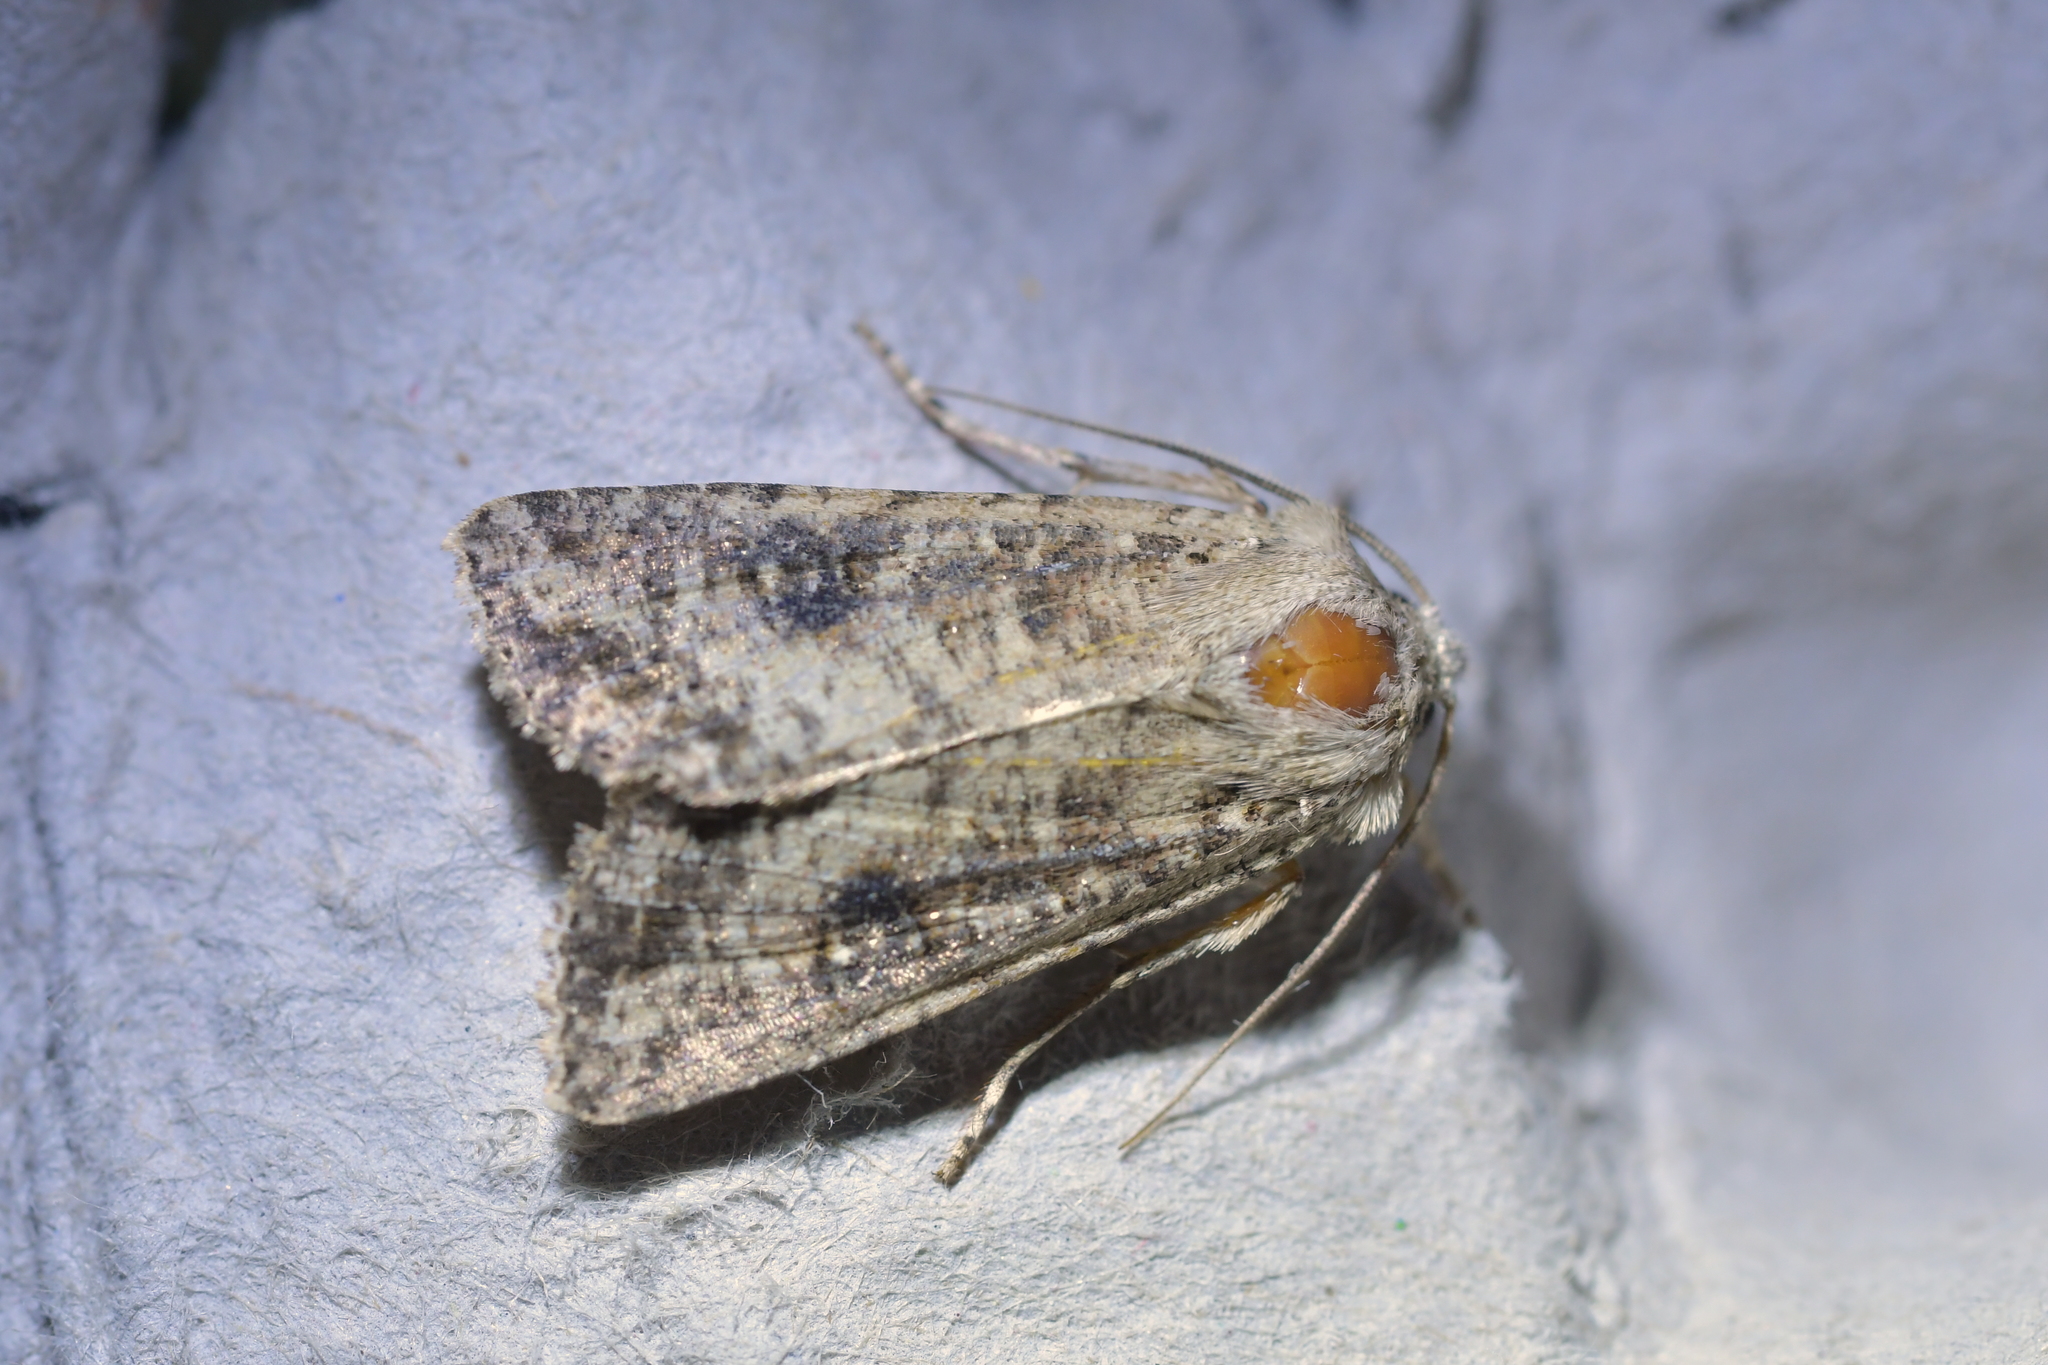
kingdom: Animalia
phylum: Arthropoda
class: Insecta
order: Lepidoptera
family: Noctuidae
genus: Ichneutica
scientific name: Ichneutica morosa
